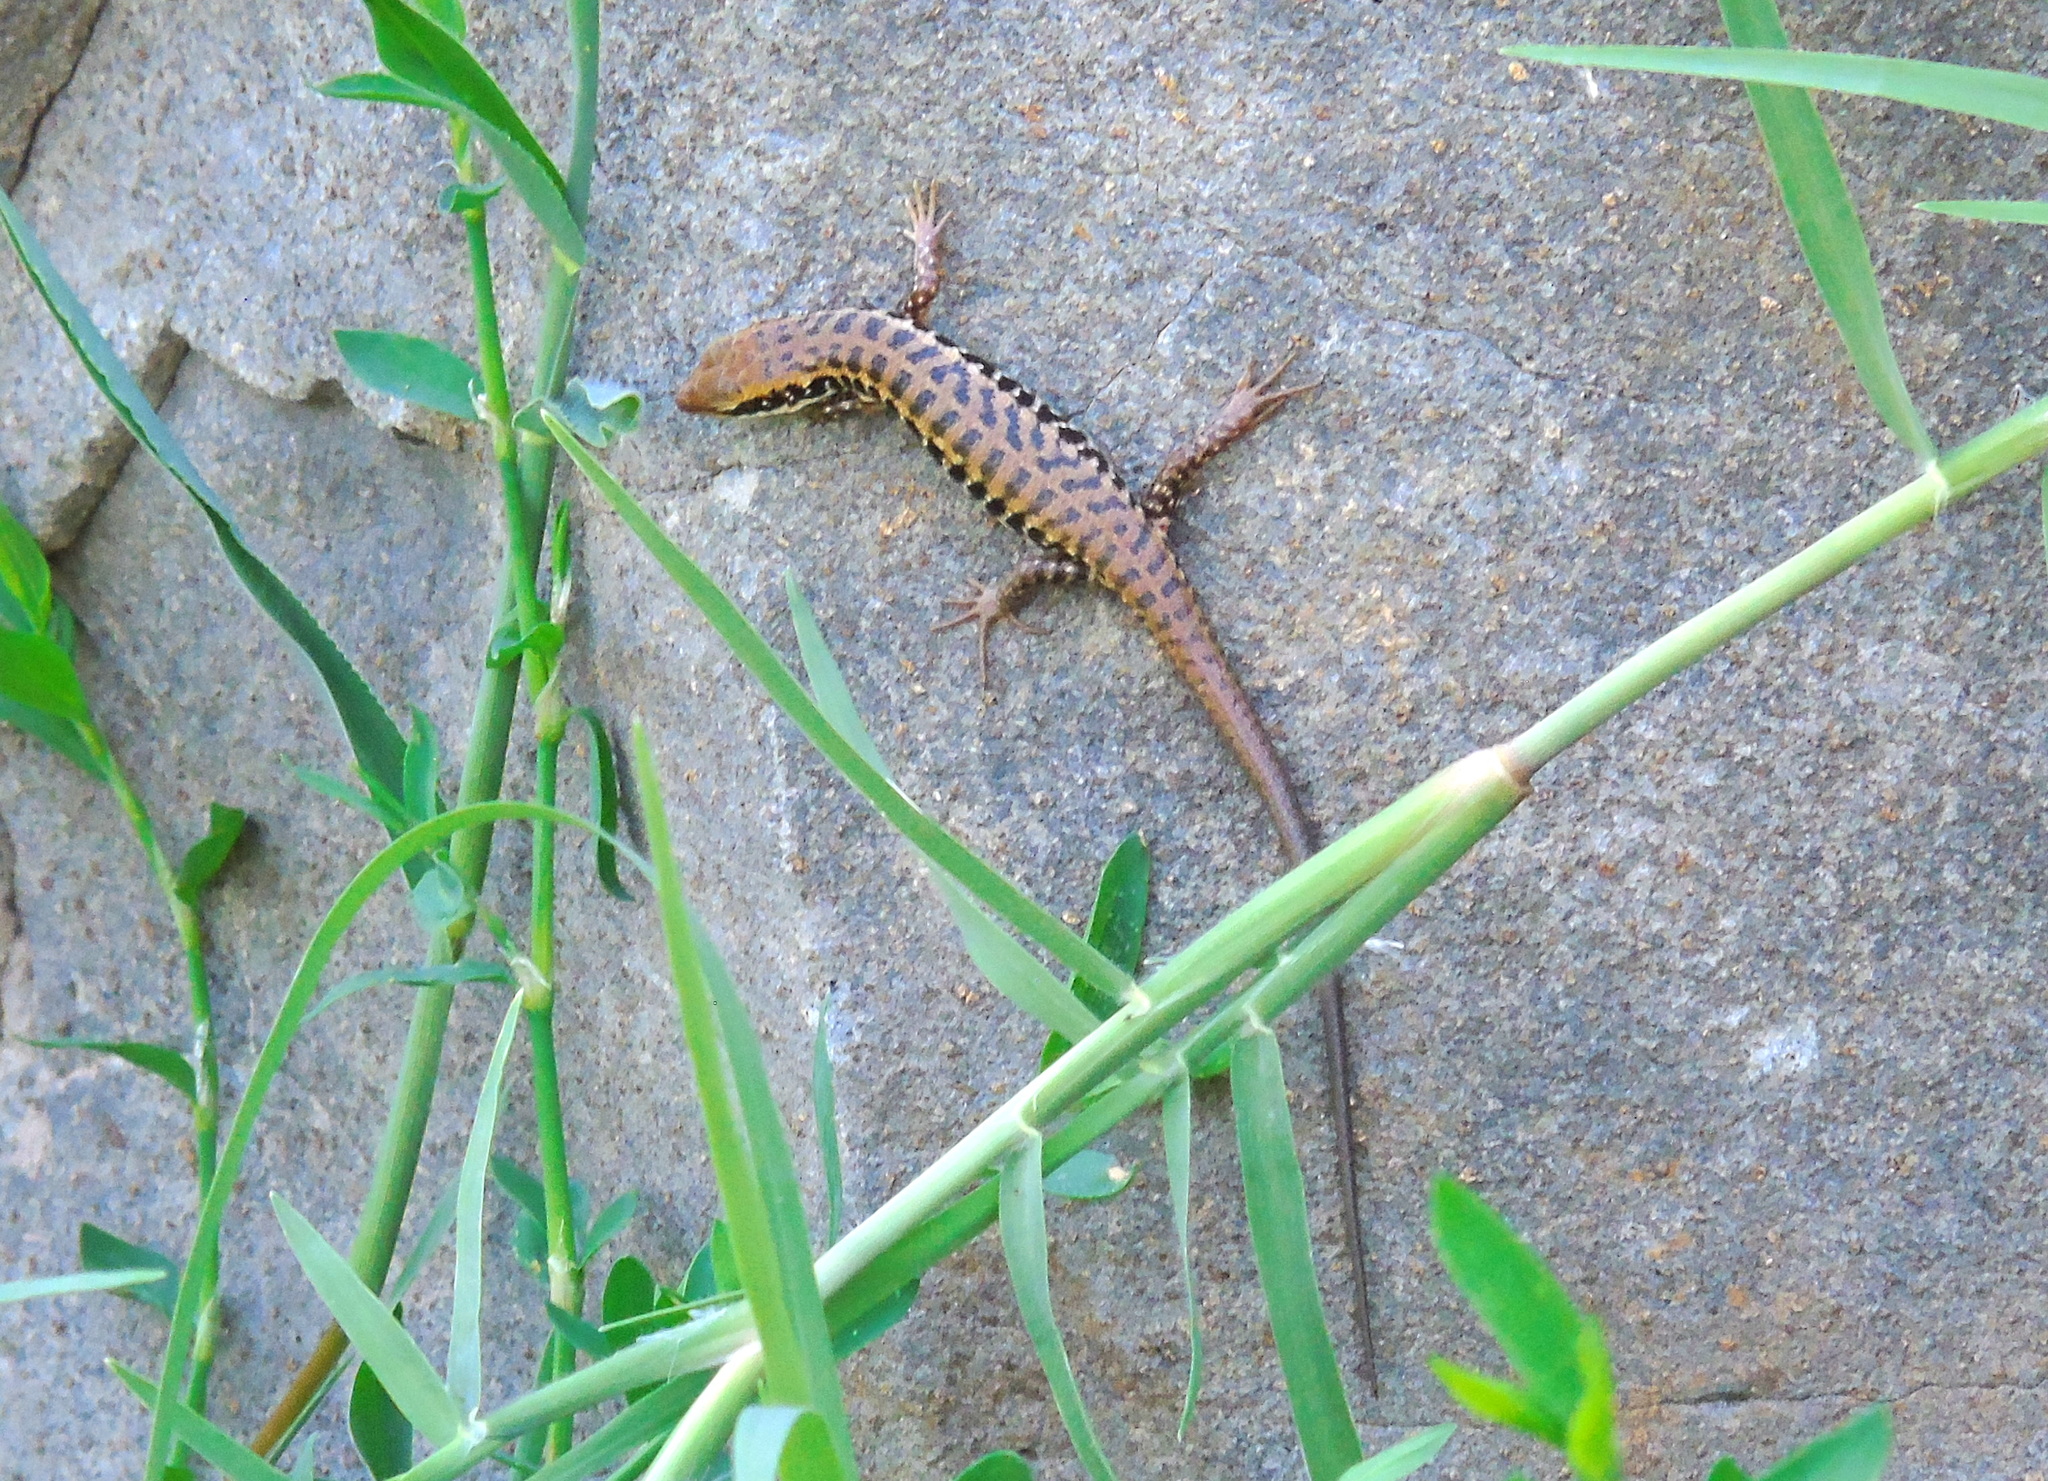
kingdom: Animalia
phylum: Chordata
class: Squamata
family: Scincidae
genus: Heremites
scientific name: Heremites auratus
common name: Golden grass mabuya
